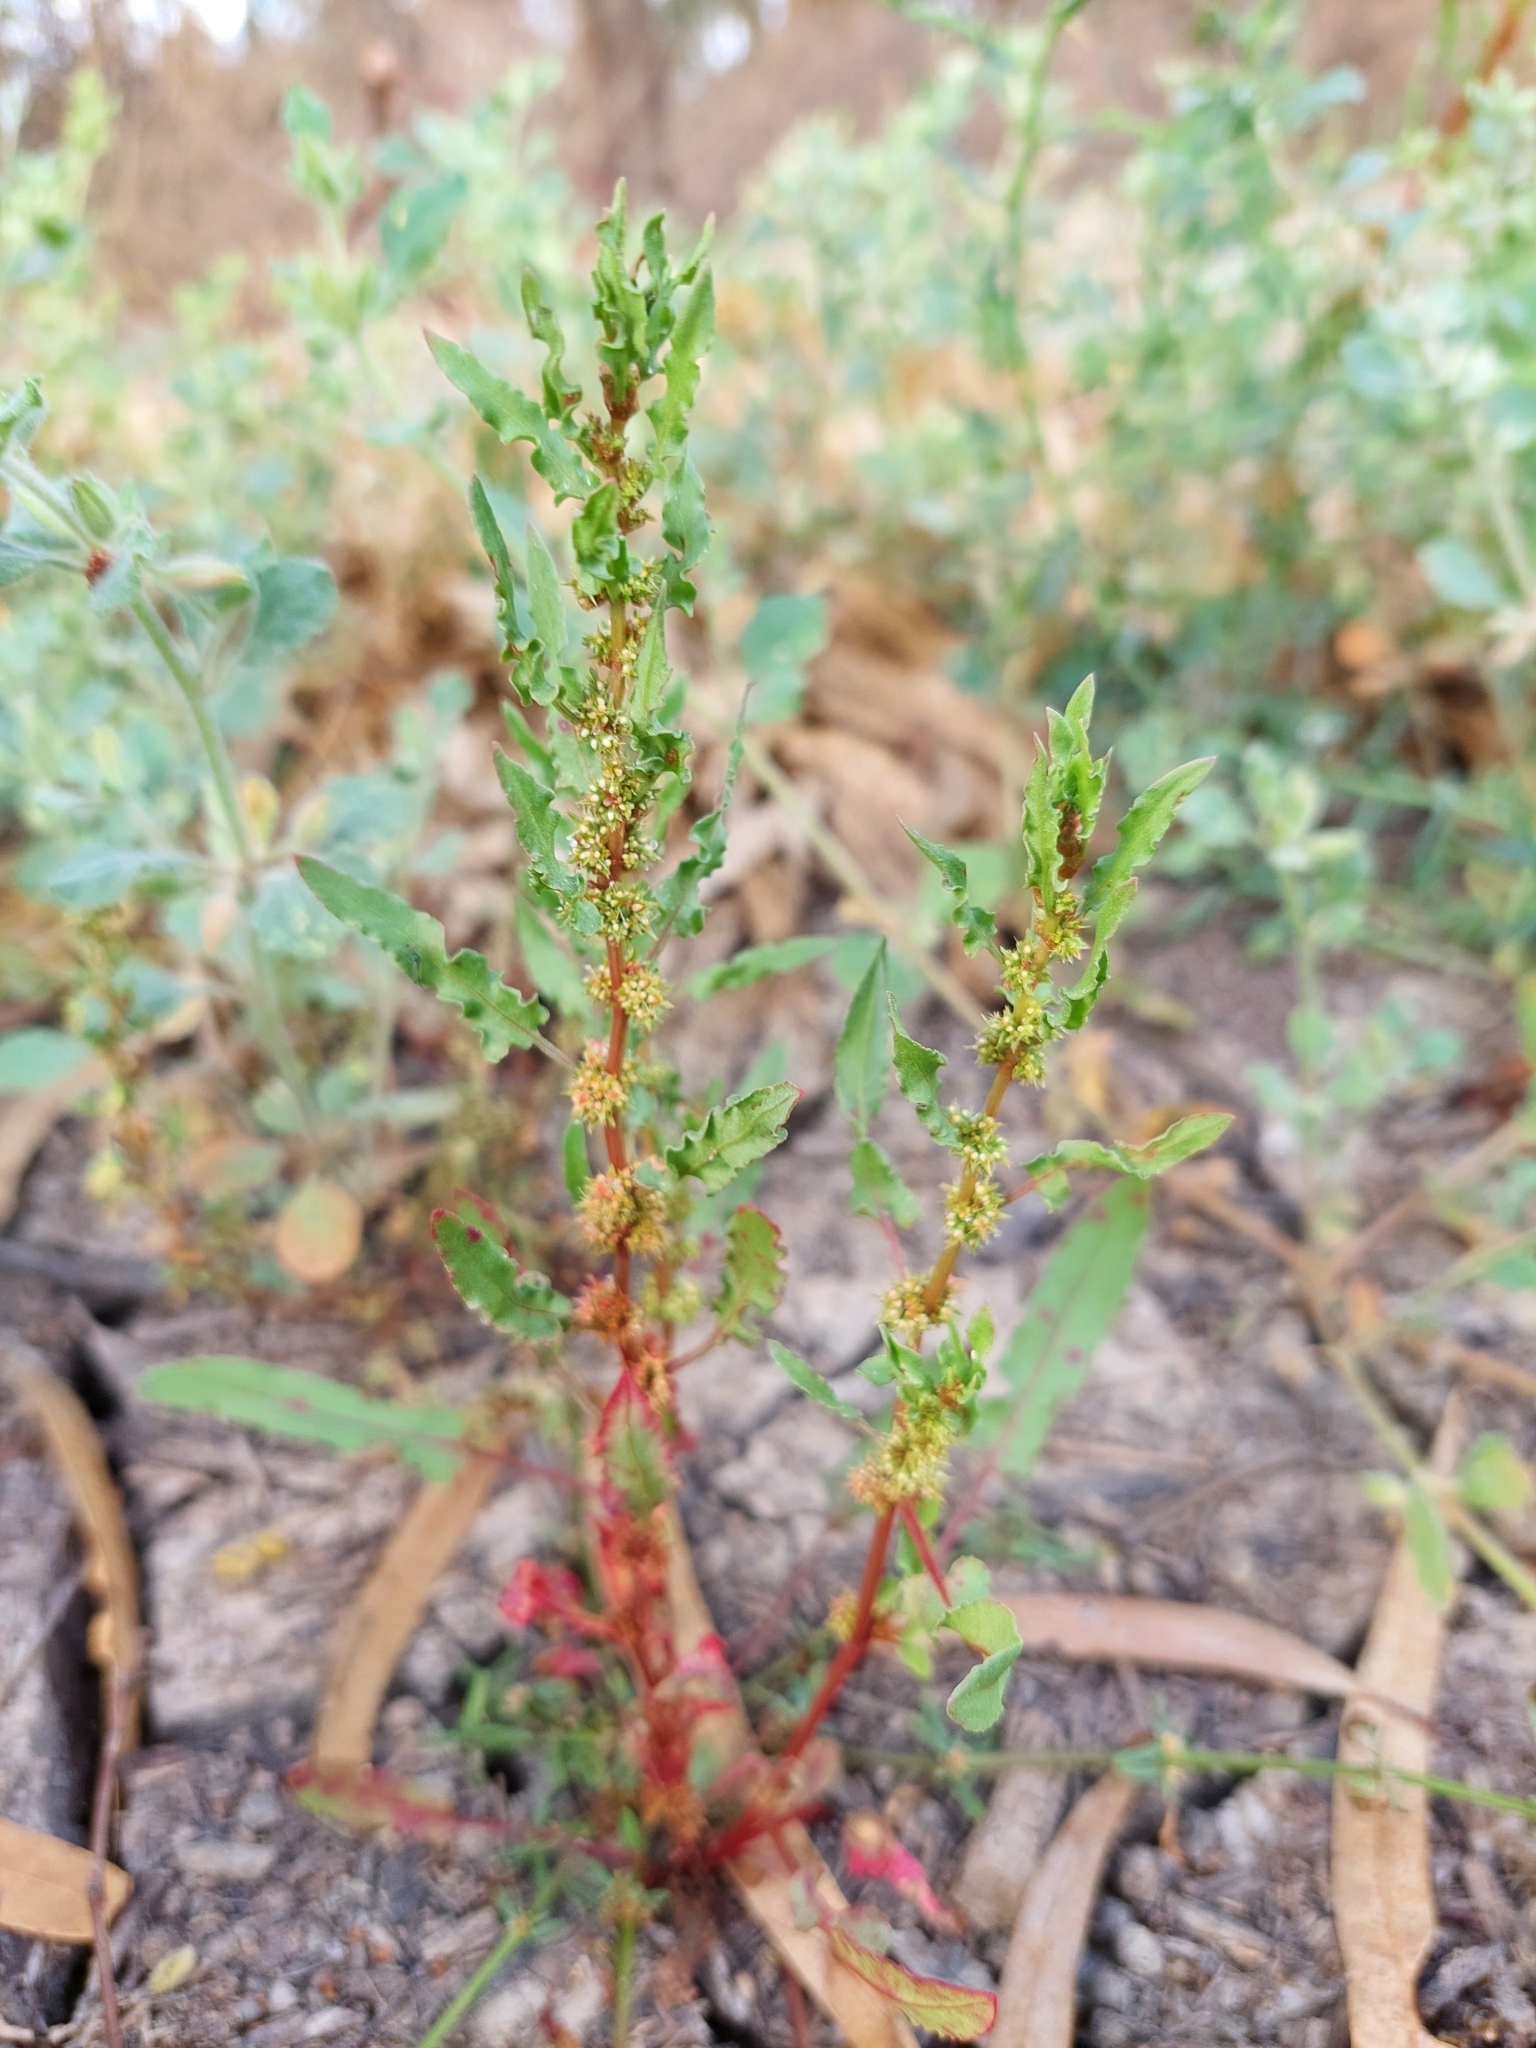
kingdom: Plantae
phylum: Tracheophyta
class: Magnoliopsida
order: Caryophyllales
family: Polygonaceae
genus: Rumex
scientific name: Rumex crystallinus
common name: Glistening dock
